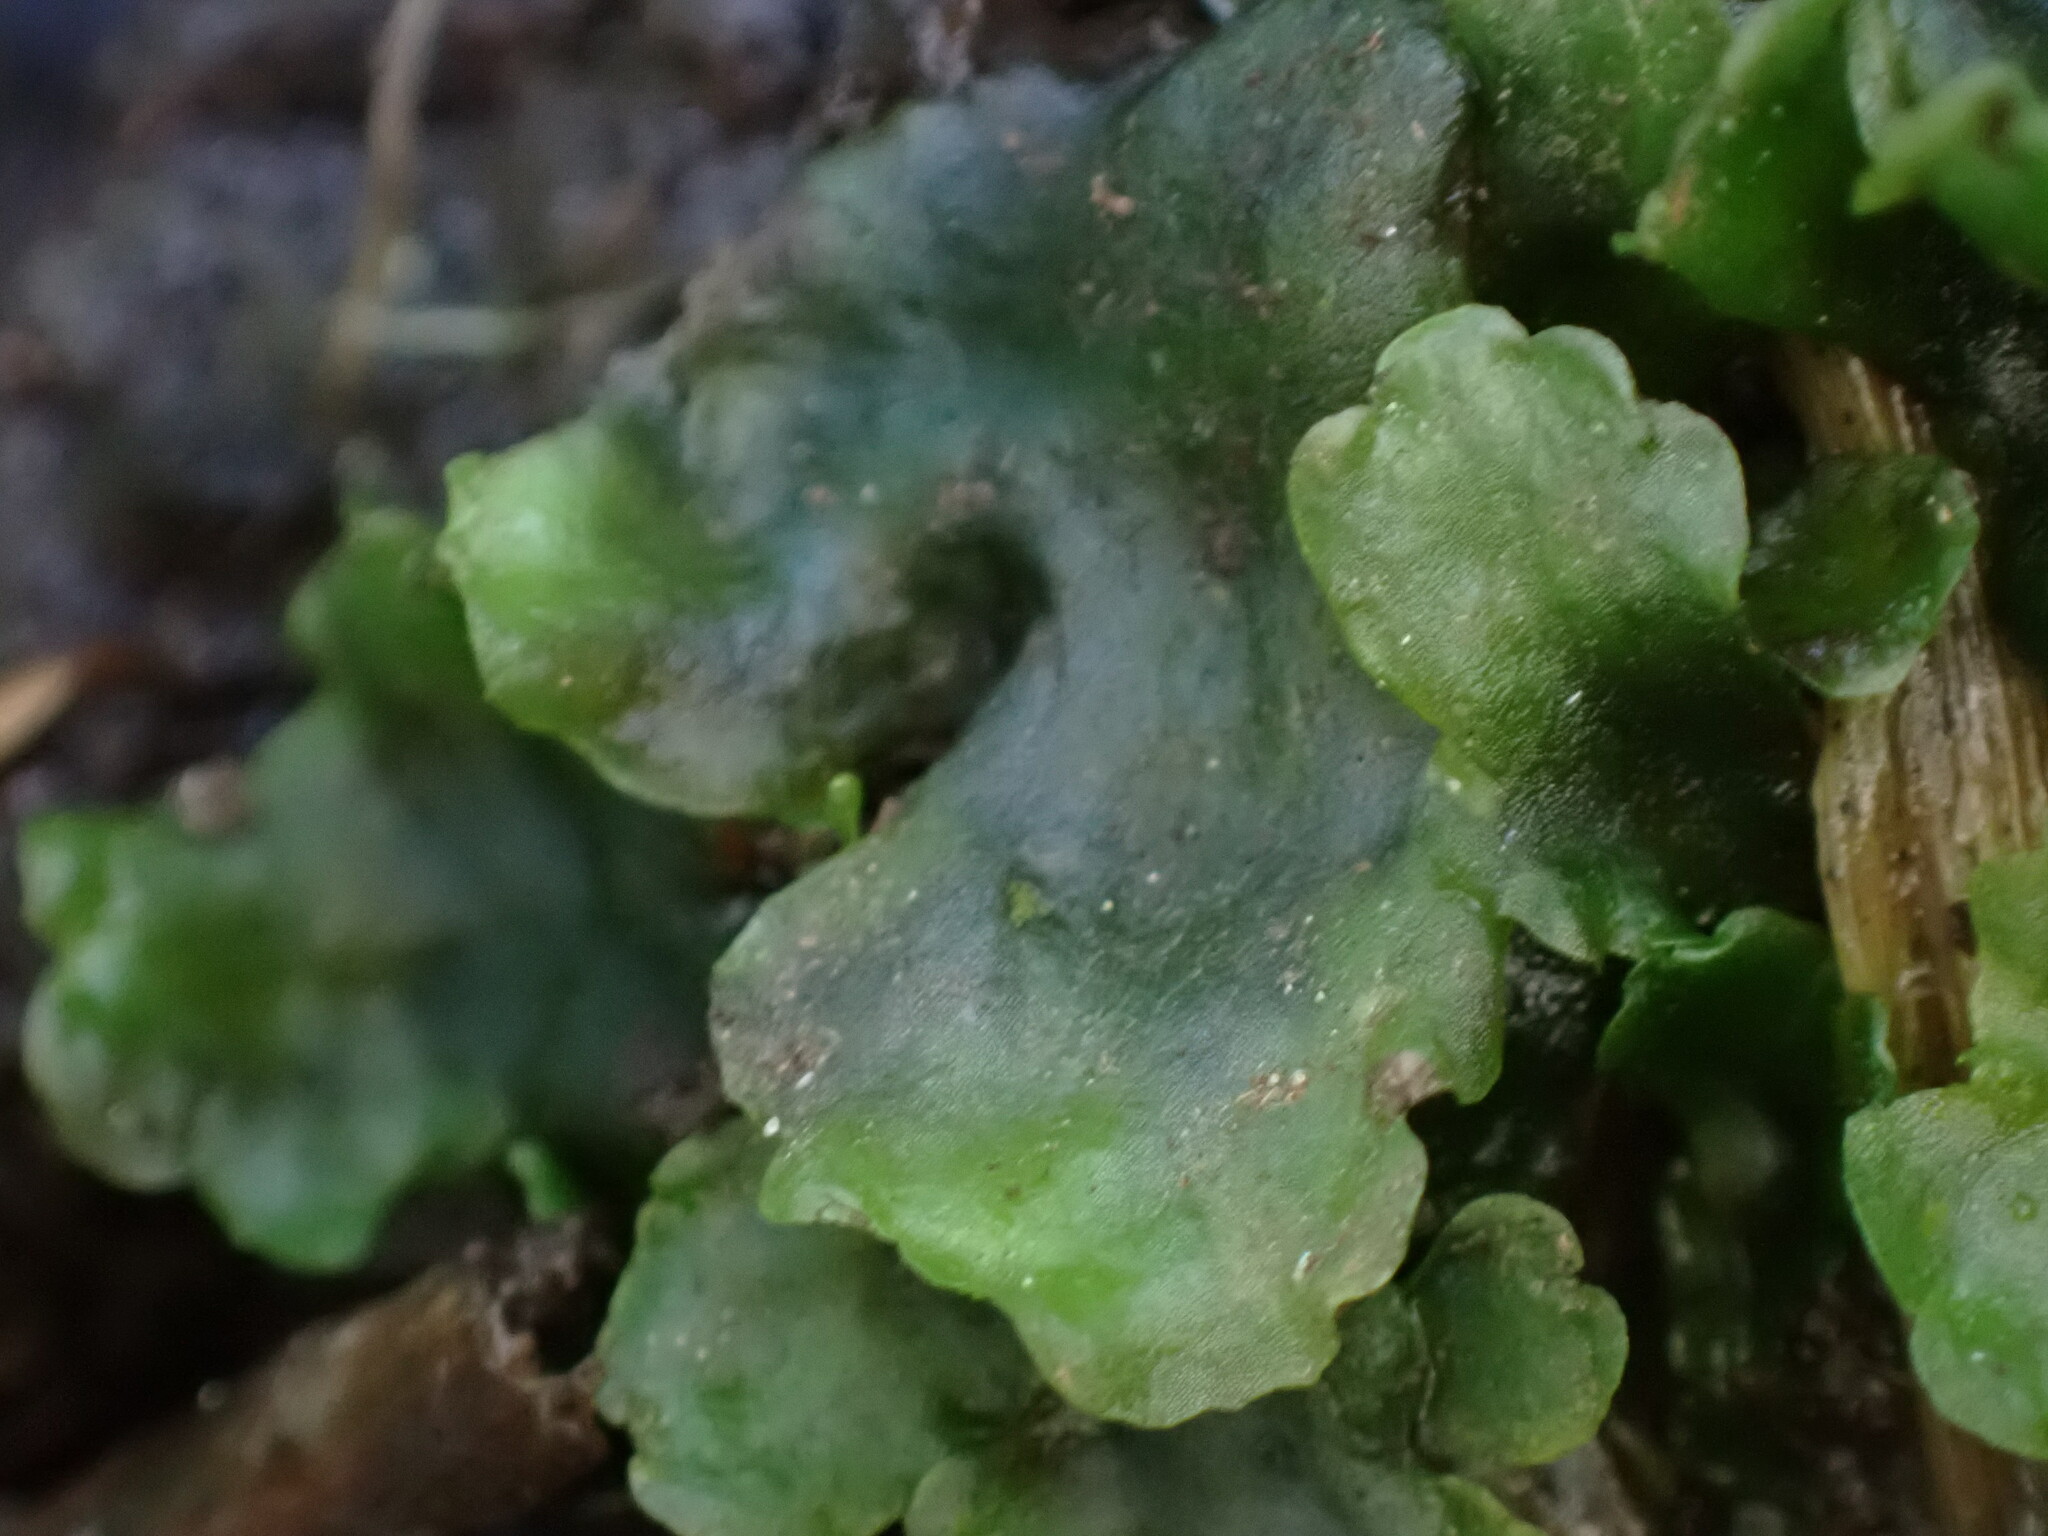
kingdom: Plantae
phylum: Marchantiophyta
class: Jungermanniopsida
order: Pelliales
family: Pelliaceae
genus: Pellia
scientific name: Pellia neesiana
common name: Nees  pellia
